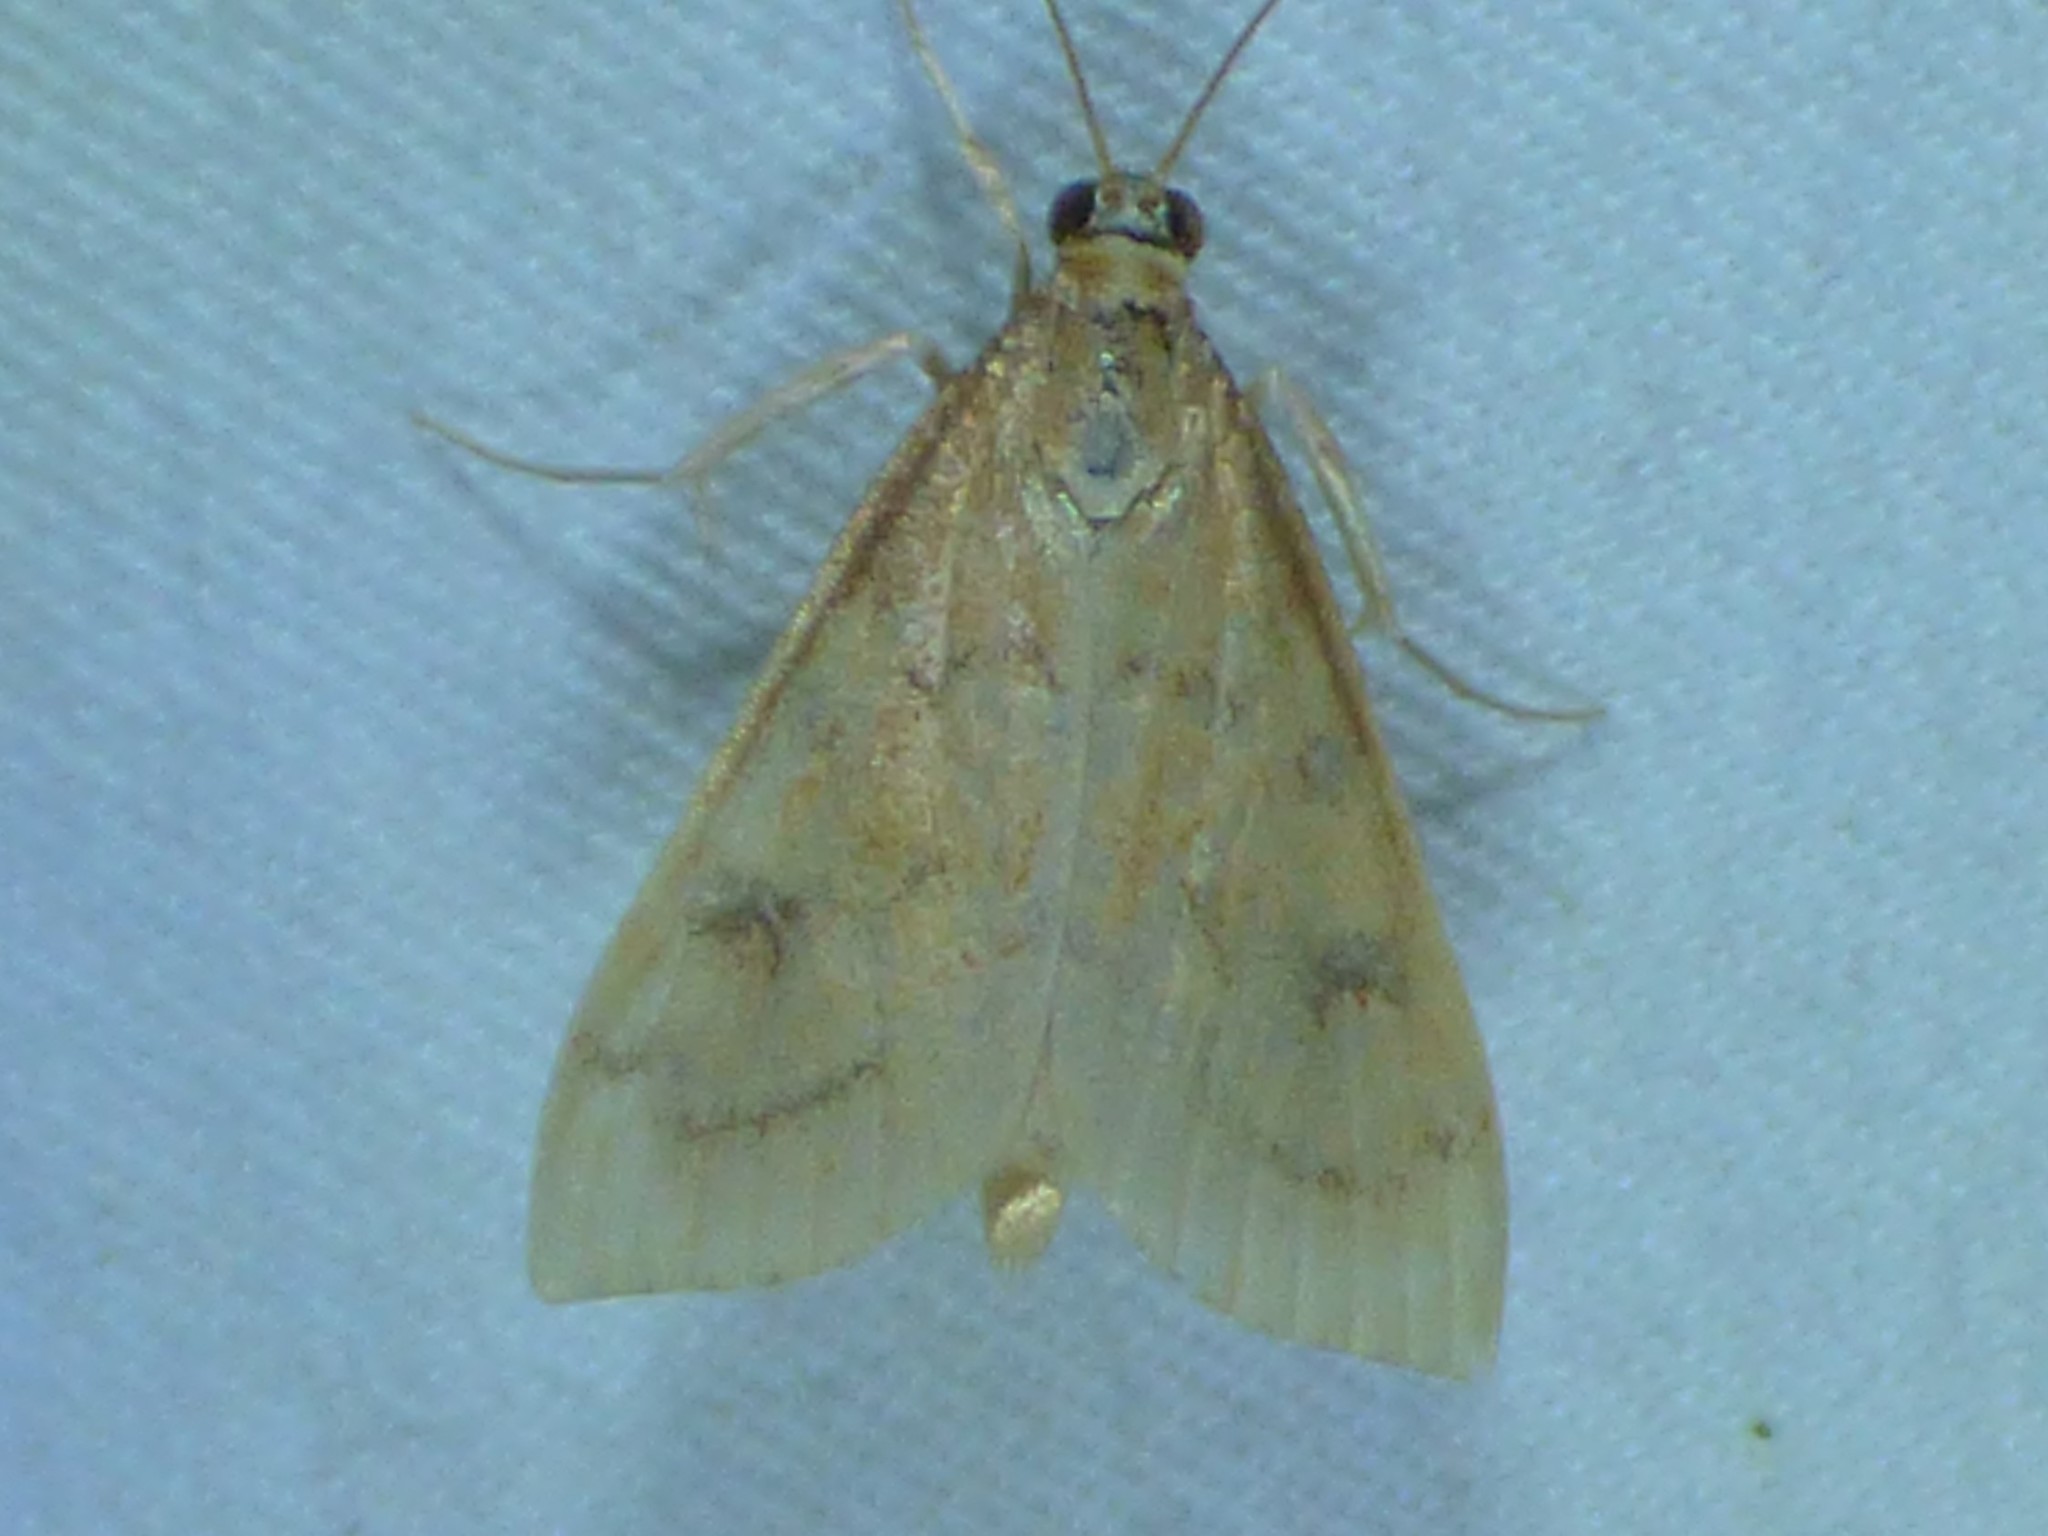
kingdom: Animalia
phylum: Arthropoda
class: Insecta
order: Lepidoptera
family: Crambidae
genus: Udea
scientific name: Udea rubigalis
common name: Celery leaftier moth
